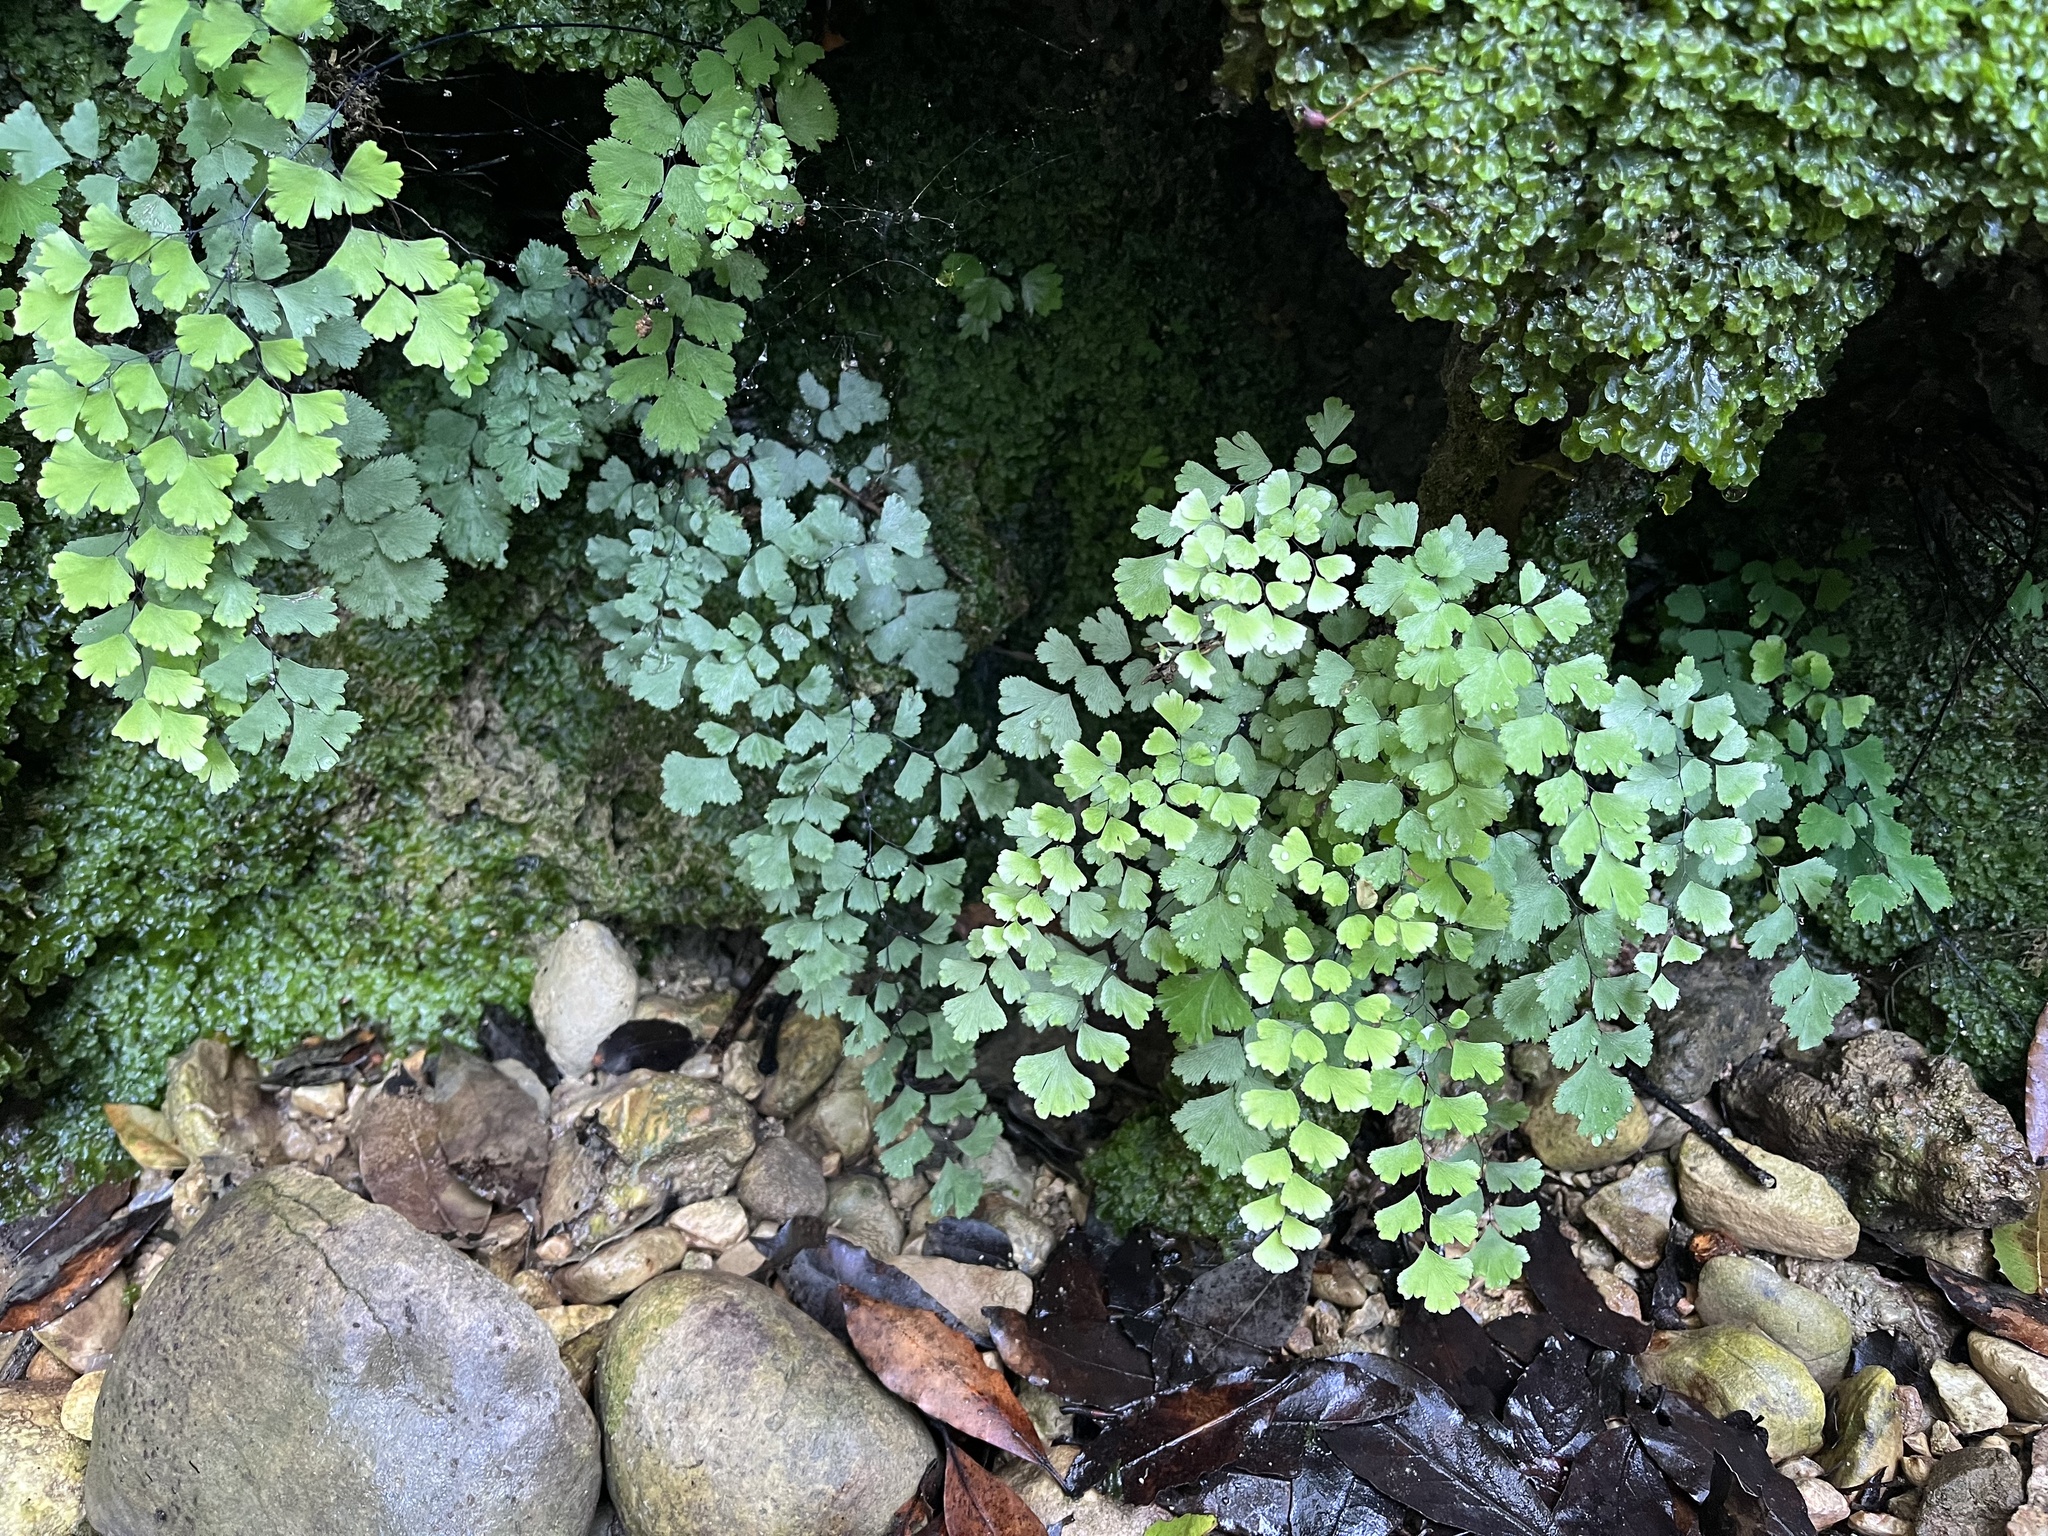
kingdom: Plantae
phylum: Tracheophyta
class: Polypodiopsida
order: Polypodiales
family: Pteridaceae
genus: Adiantum
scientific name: Adiantum capillus-veneris
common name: Maidenhair fern
